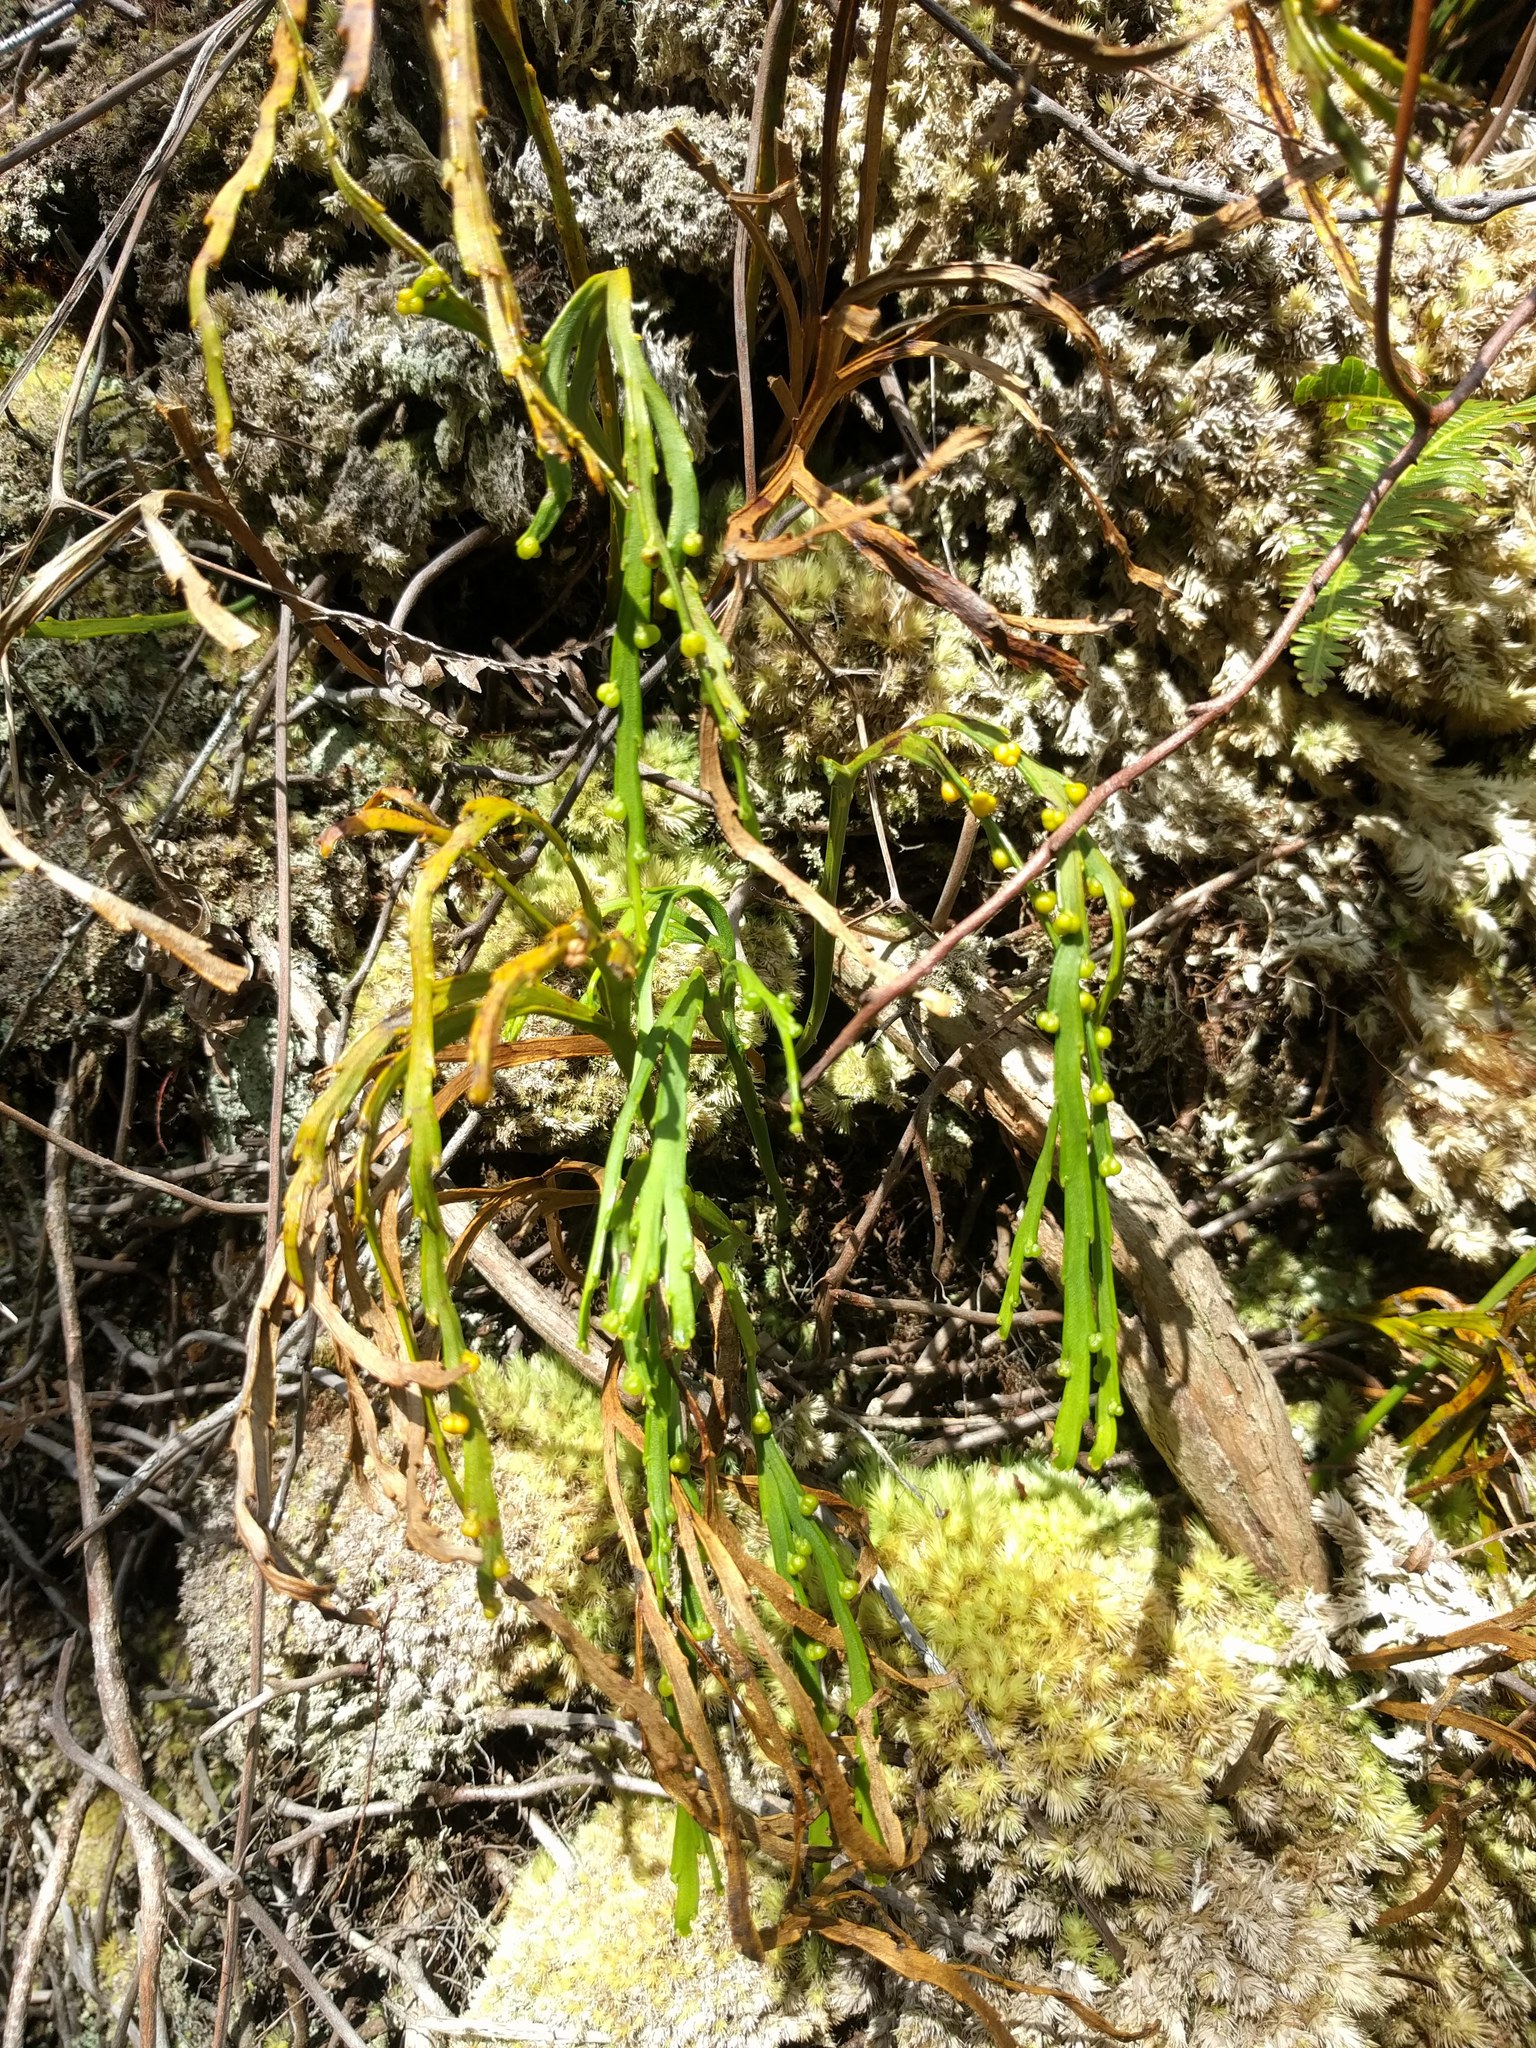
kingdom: Plantae
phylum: Tracheophyta
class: Polypodiopsida
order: Psilotales
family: Psilotaceae
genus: Psilotum
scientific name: Psilotum complanatum
